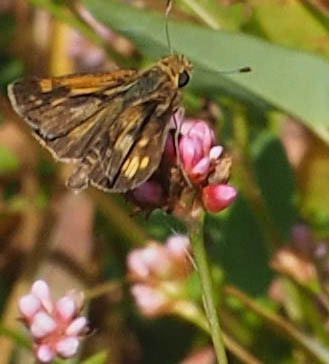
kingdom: Animalia
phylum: Arthropoda
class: Insecta
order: Lepidoptera
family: Hesperiidae
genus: Polites
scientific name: Polites coras
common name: Peck's skipper
